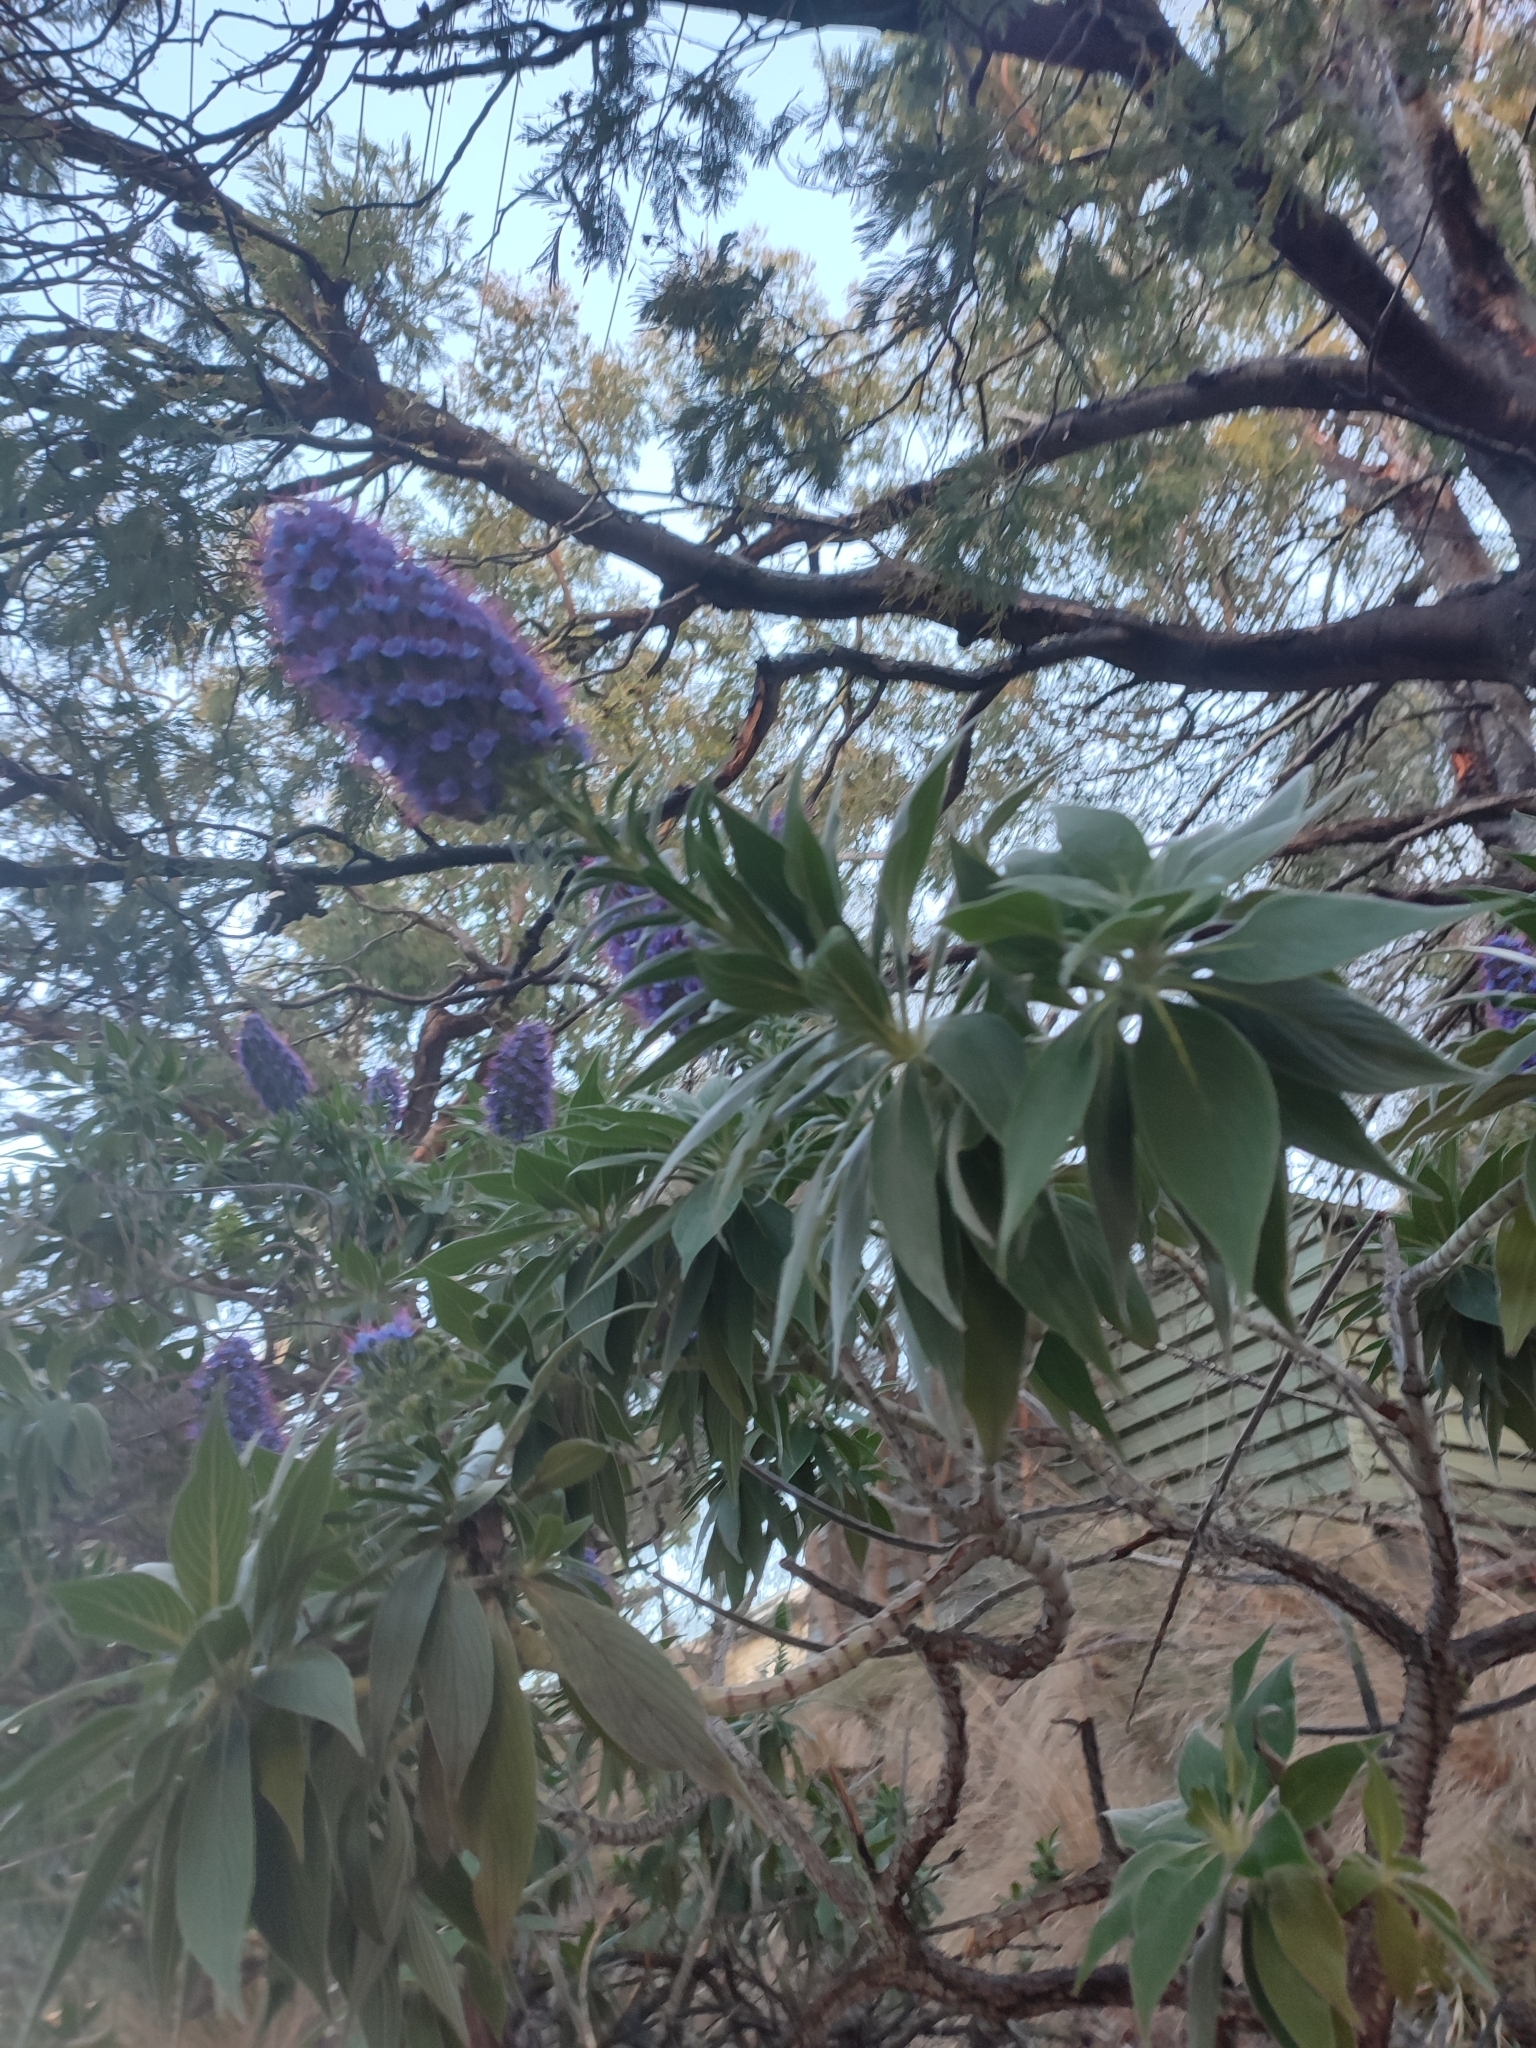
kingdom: Plantae
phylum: Tracheophyta
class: Magnoliopsida
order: Boraginales
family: Boraginaceae
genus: Echium
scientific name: Echium candicans
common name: Pride of madeira
